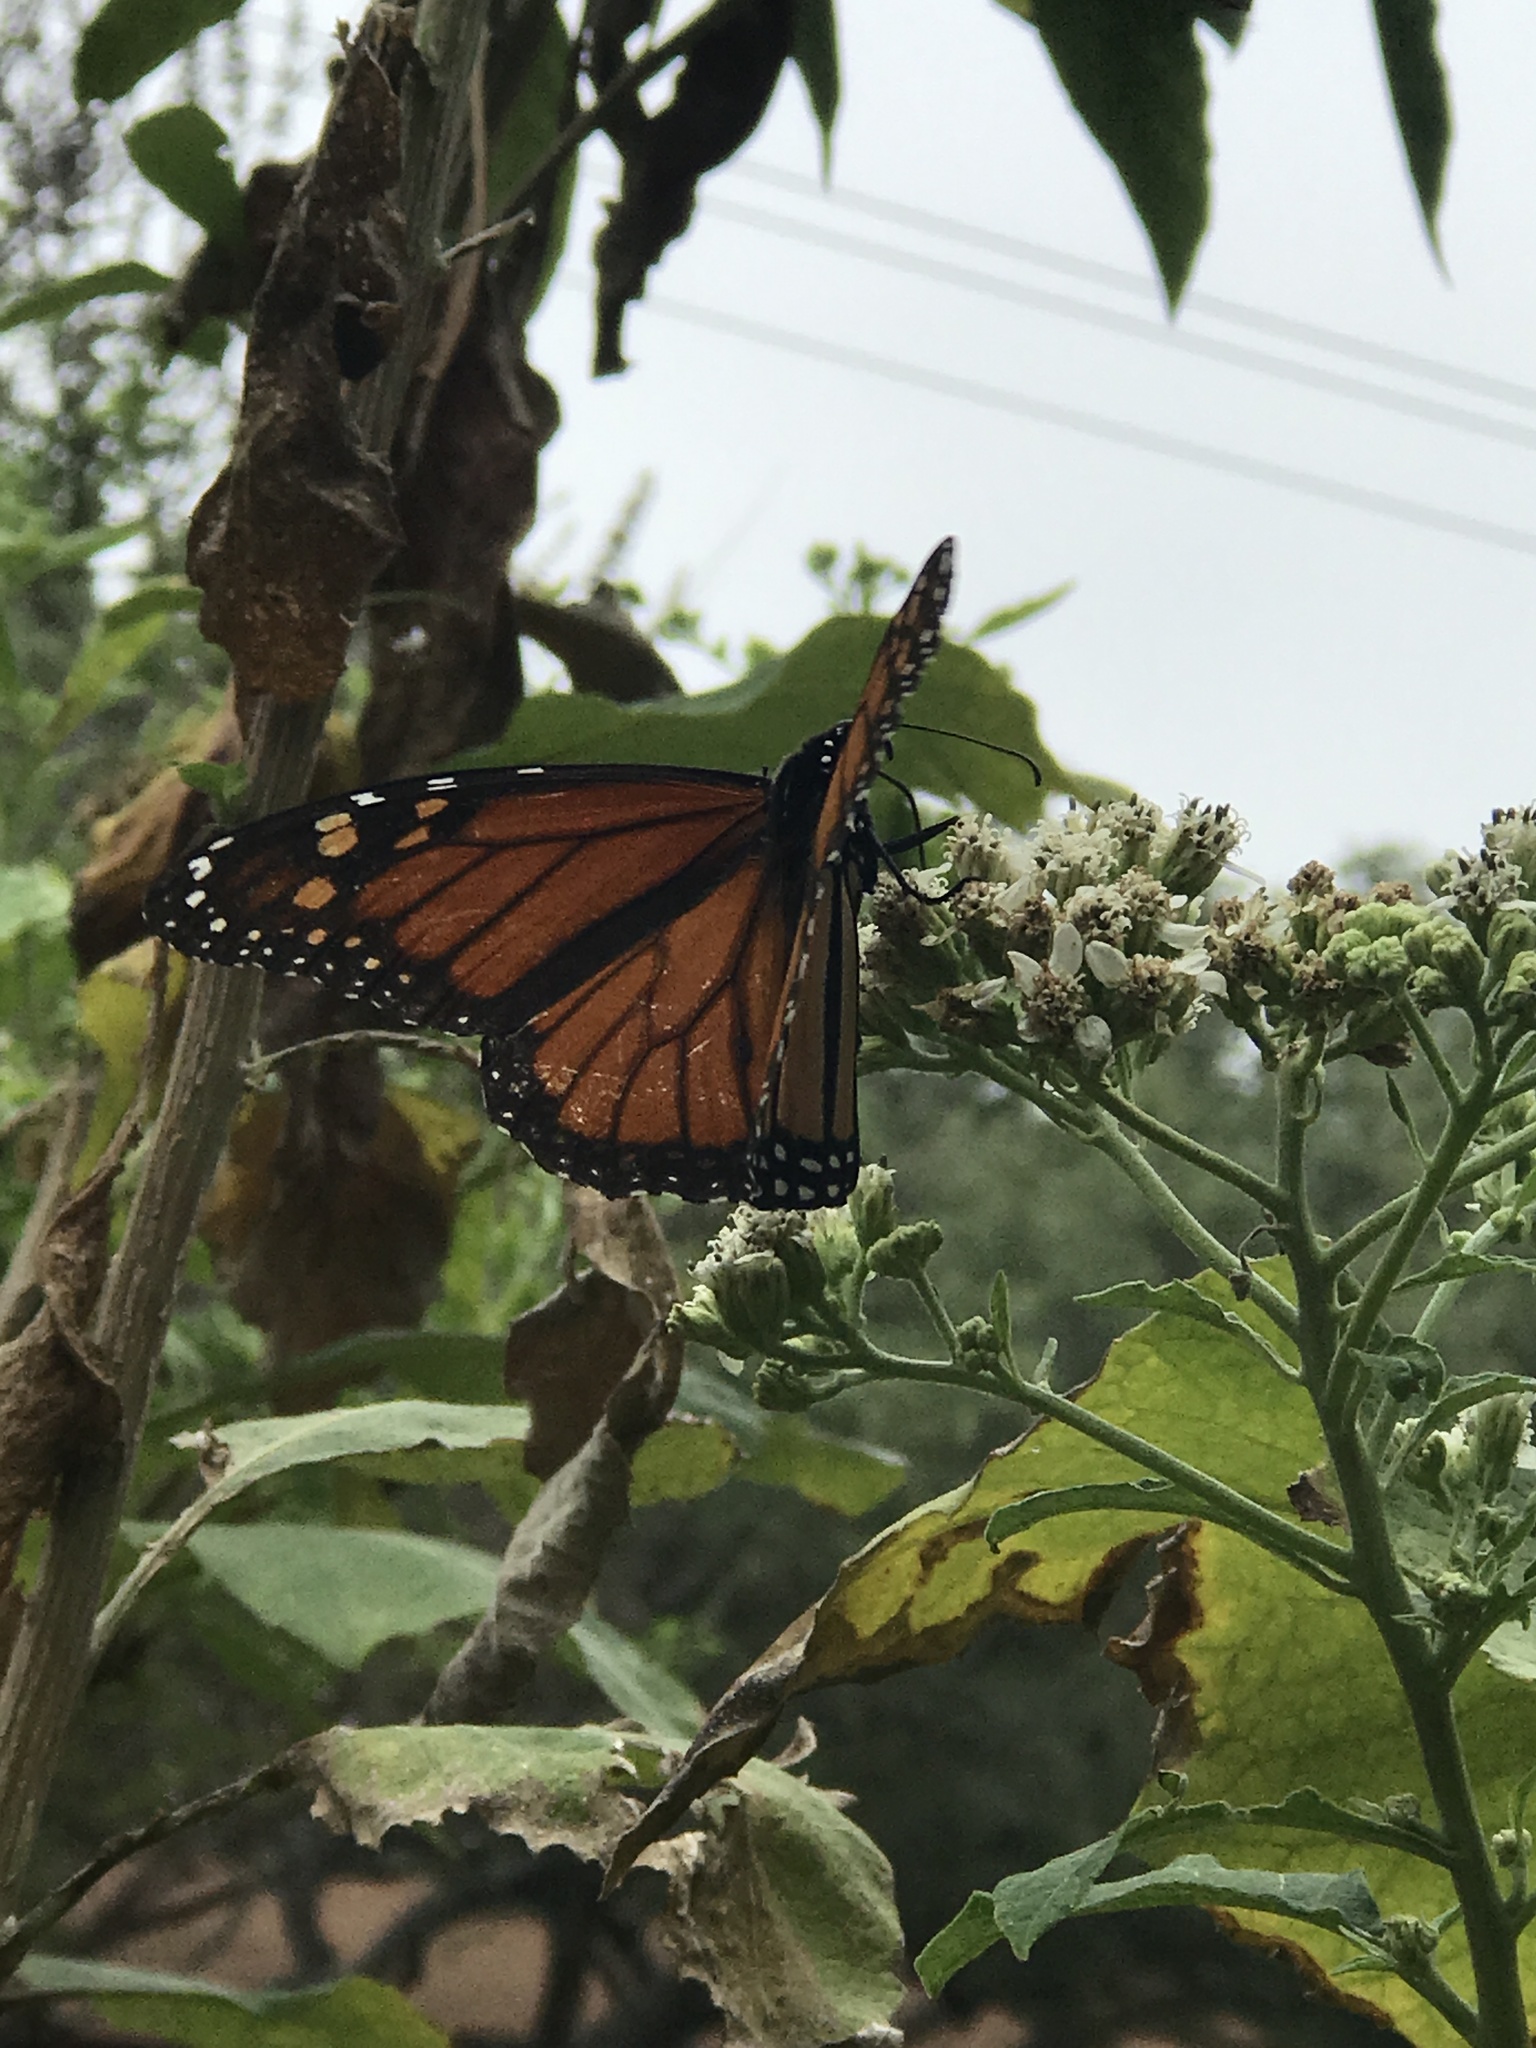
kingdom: Animalia
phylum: Arthropoda
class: Insecta
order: Lepidoptera
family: Nymphalidae
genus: Danaus
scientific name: Danaus plexippus
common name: Monarch
